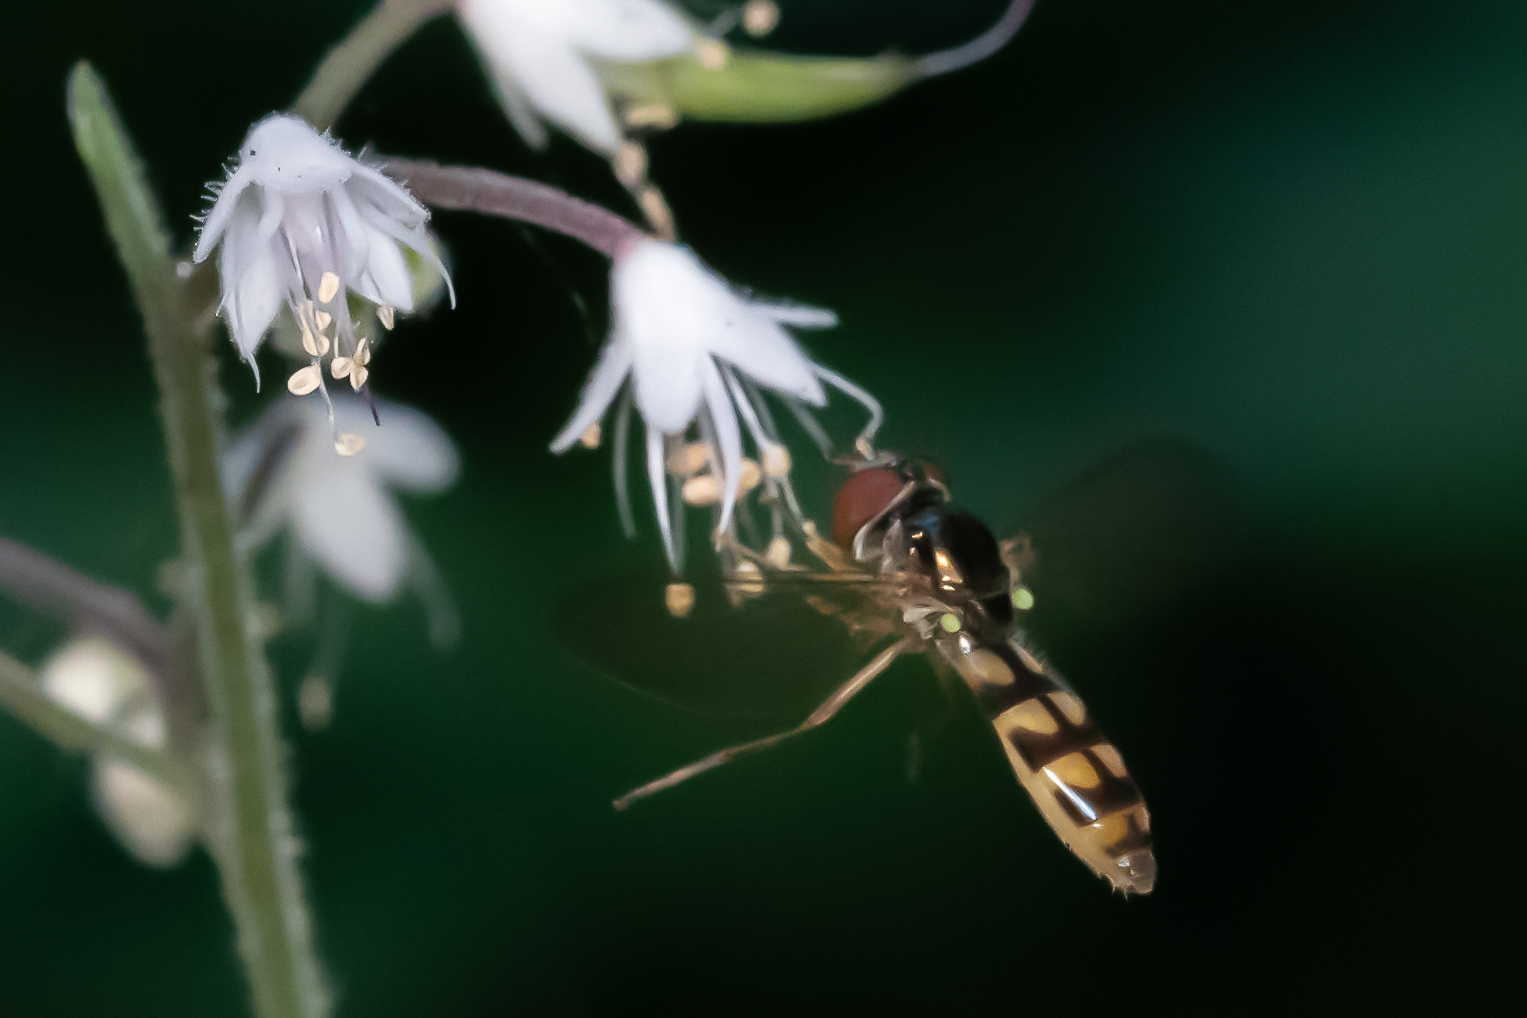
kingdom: Animalia
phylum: Arthropoda
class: Insecta
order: Diptera
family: Syrphidae
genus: Melanostoma
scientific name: Melanostoma mellina
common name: Hover fly
